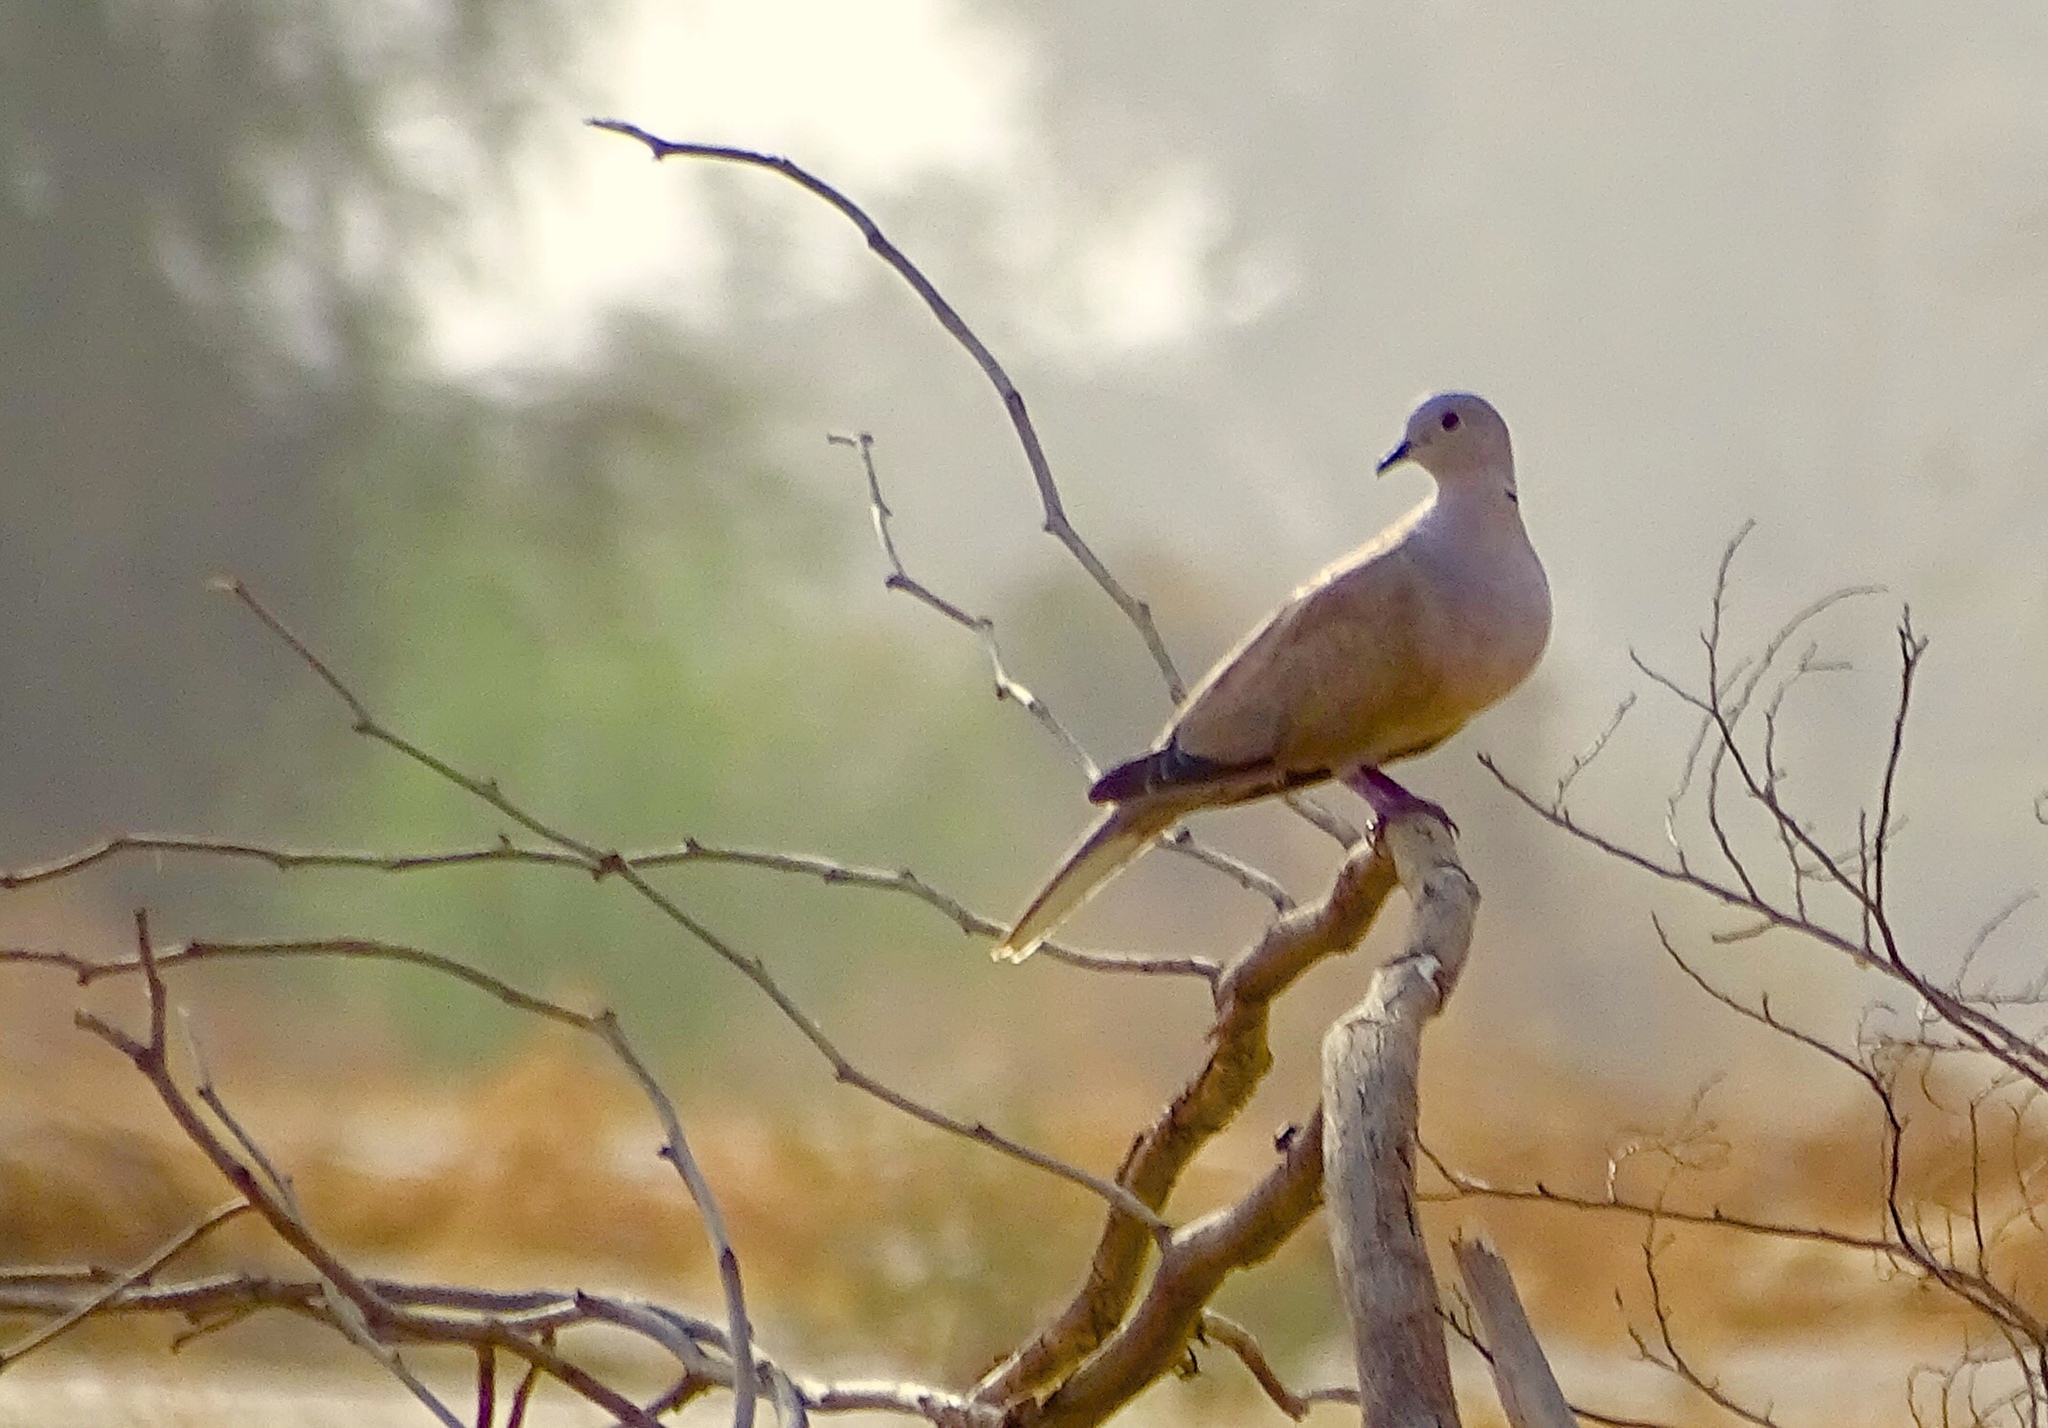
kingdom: Animalia
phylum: Chordata
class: Aves
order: Columbiformes
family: Columbidae
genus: Streptopelia
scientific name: Streptopelia decaocto
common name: Eurasian collared dove
